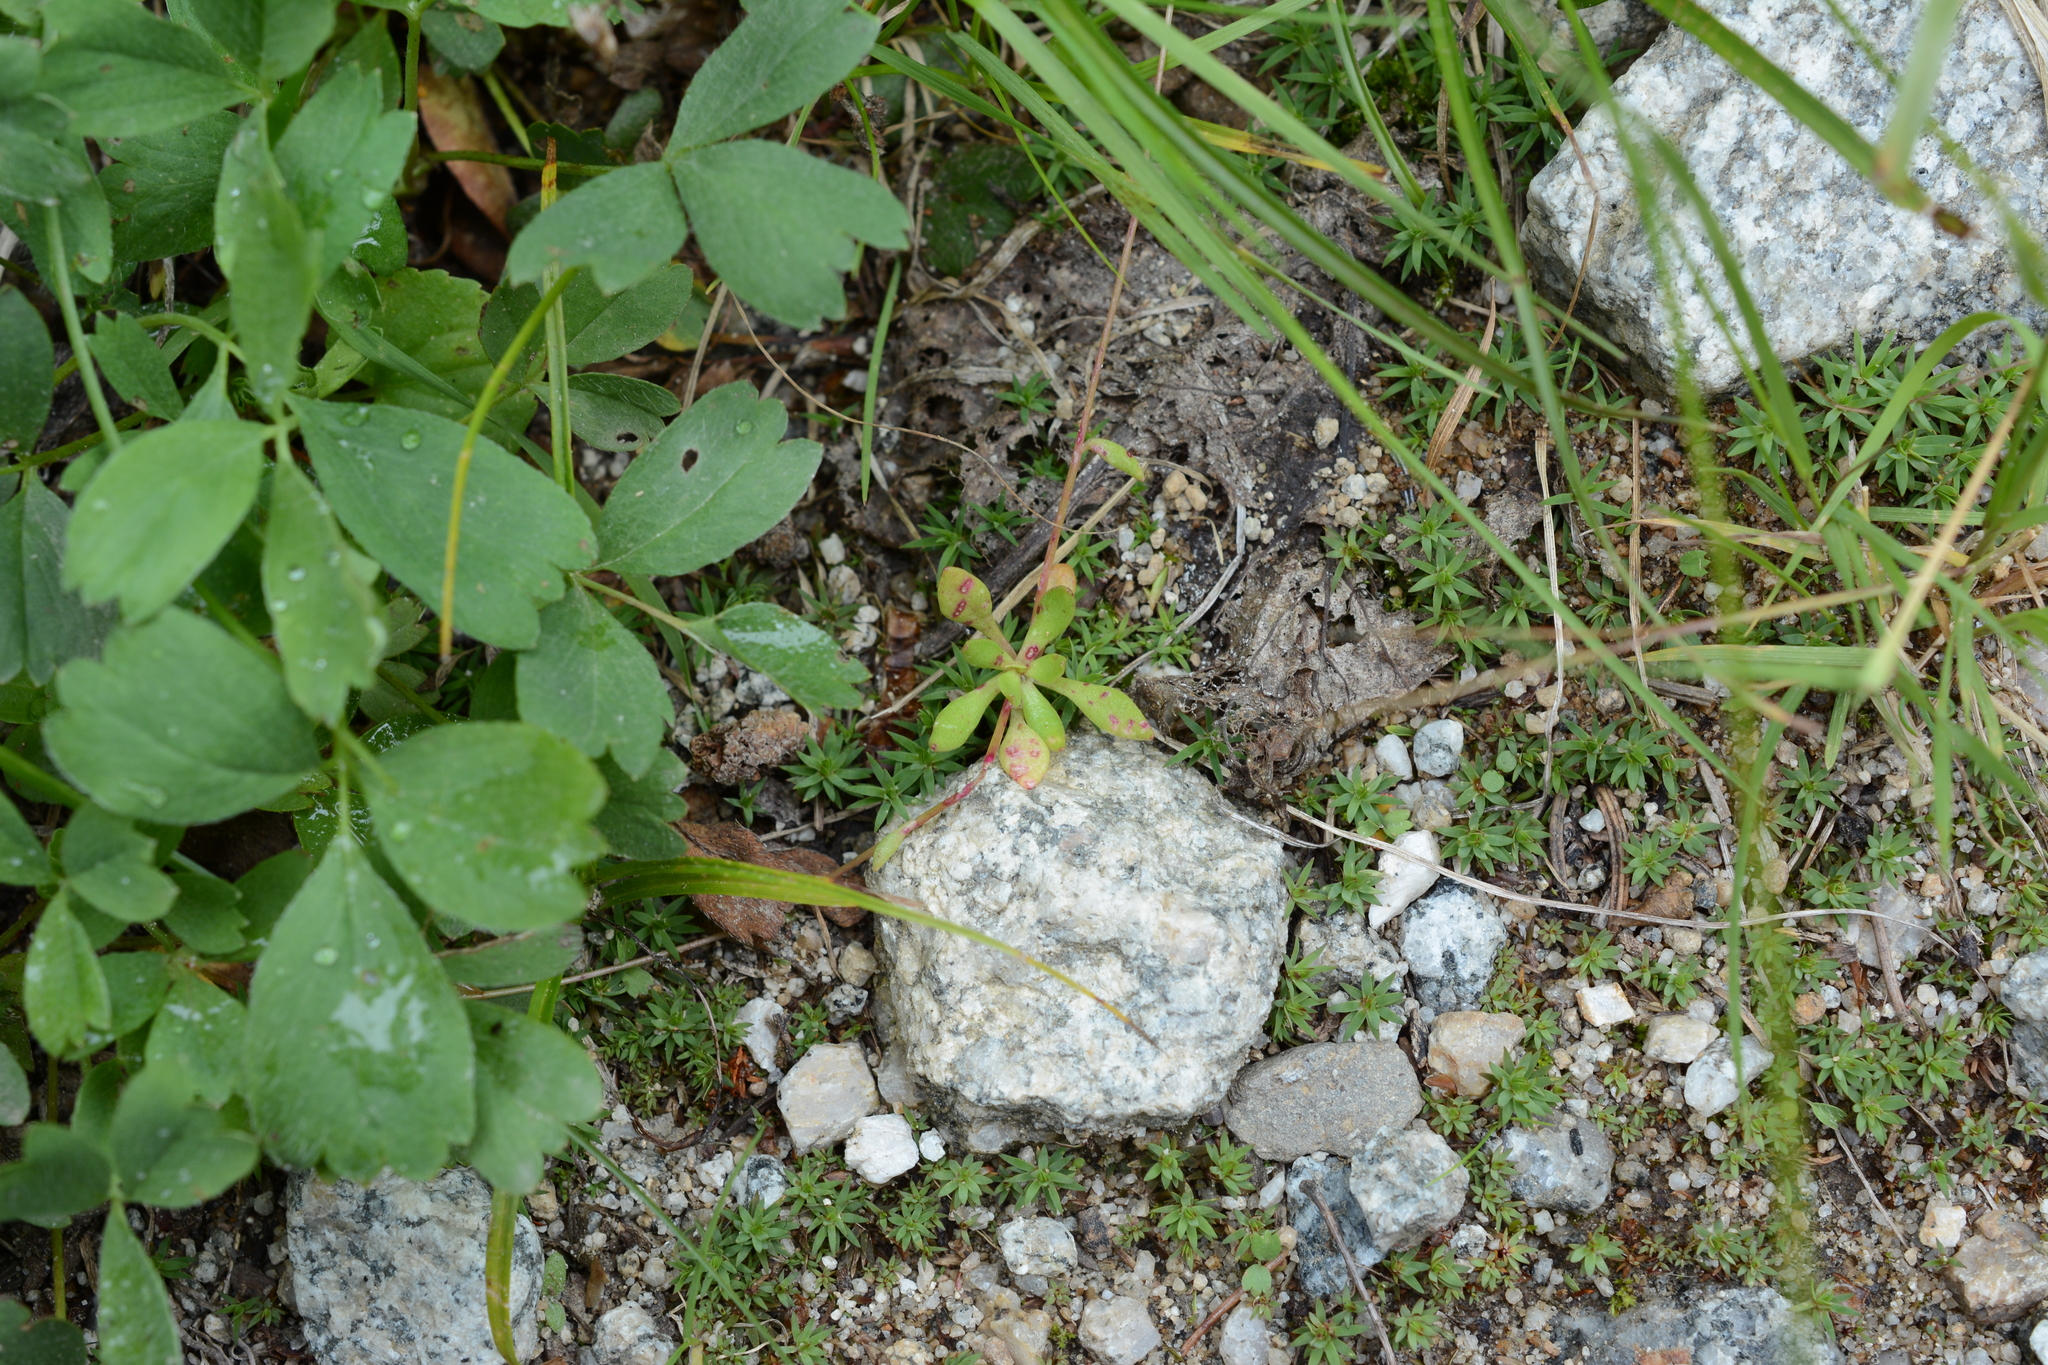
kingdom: Plantae
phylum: Tracheophyta
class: Magnoliopsida
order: Caryophyllales
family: Montiaceae
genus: Montia
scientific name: Montia parvifolia
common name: Small-leaved blinks
